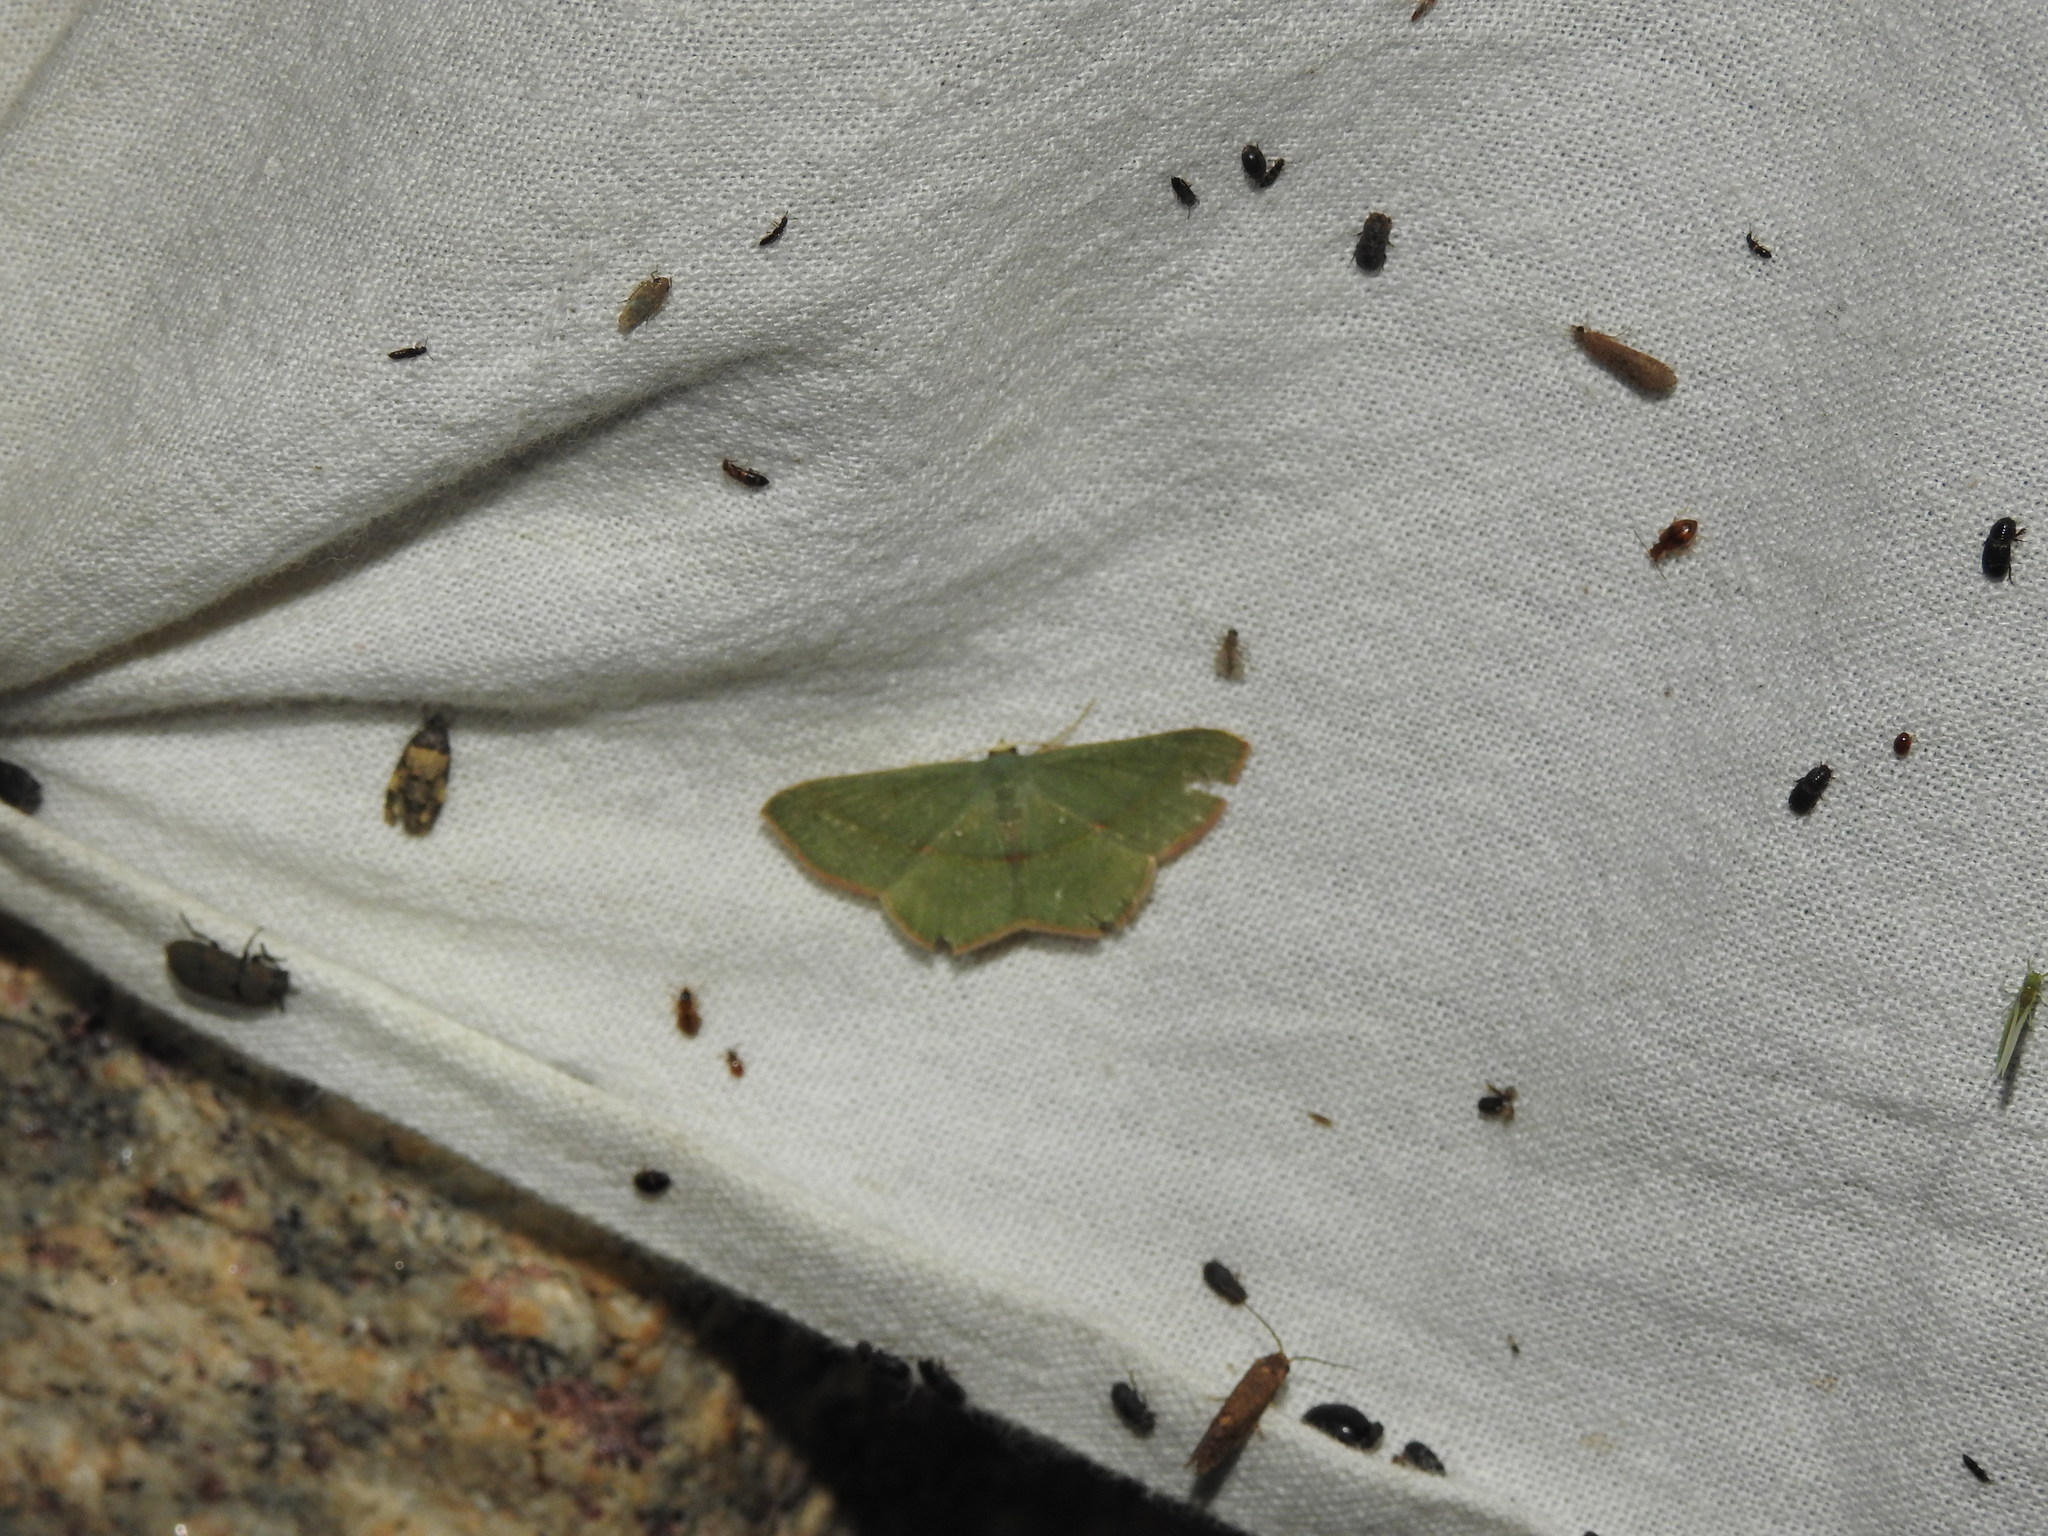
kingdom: Animalia
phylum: Arthropoda
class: Insecta
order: Lepidoptera
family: Geometridae
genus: Traminda
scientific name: Traminda mundissima
